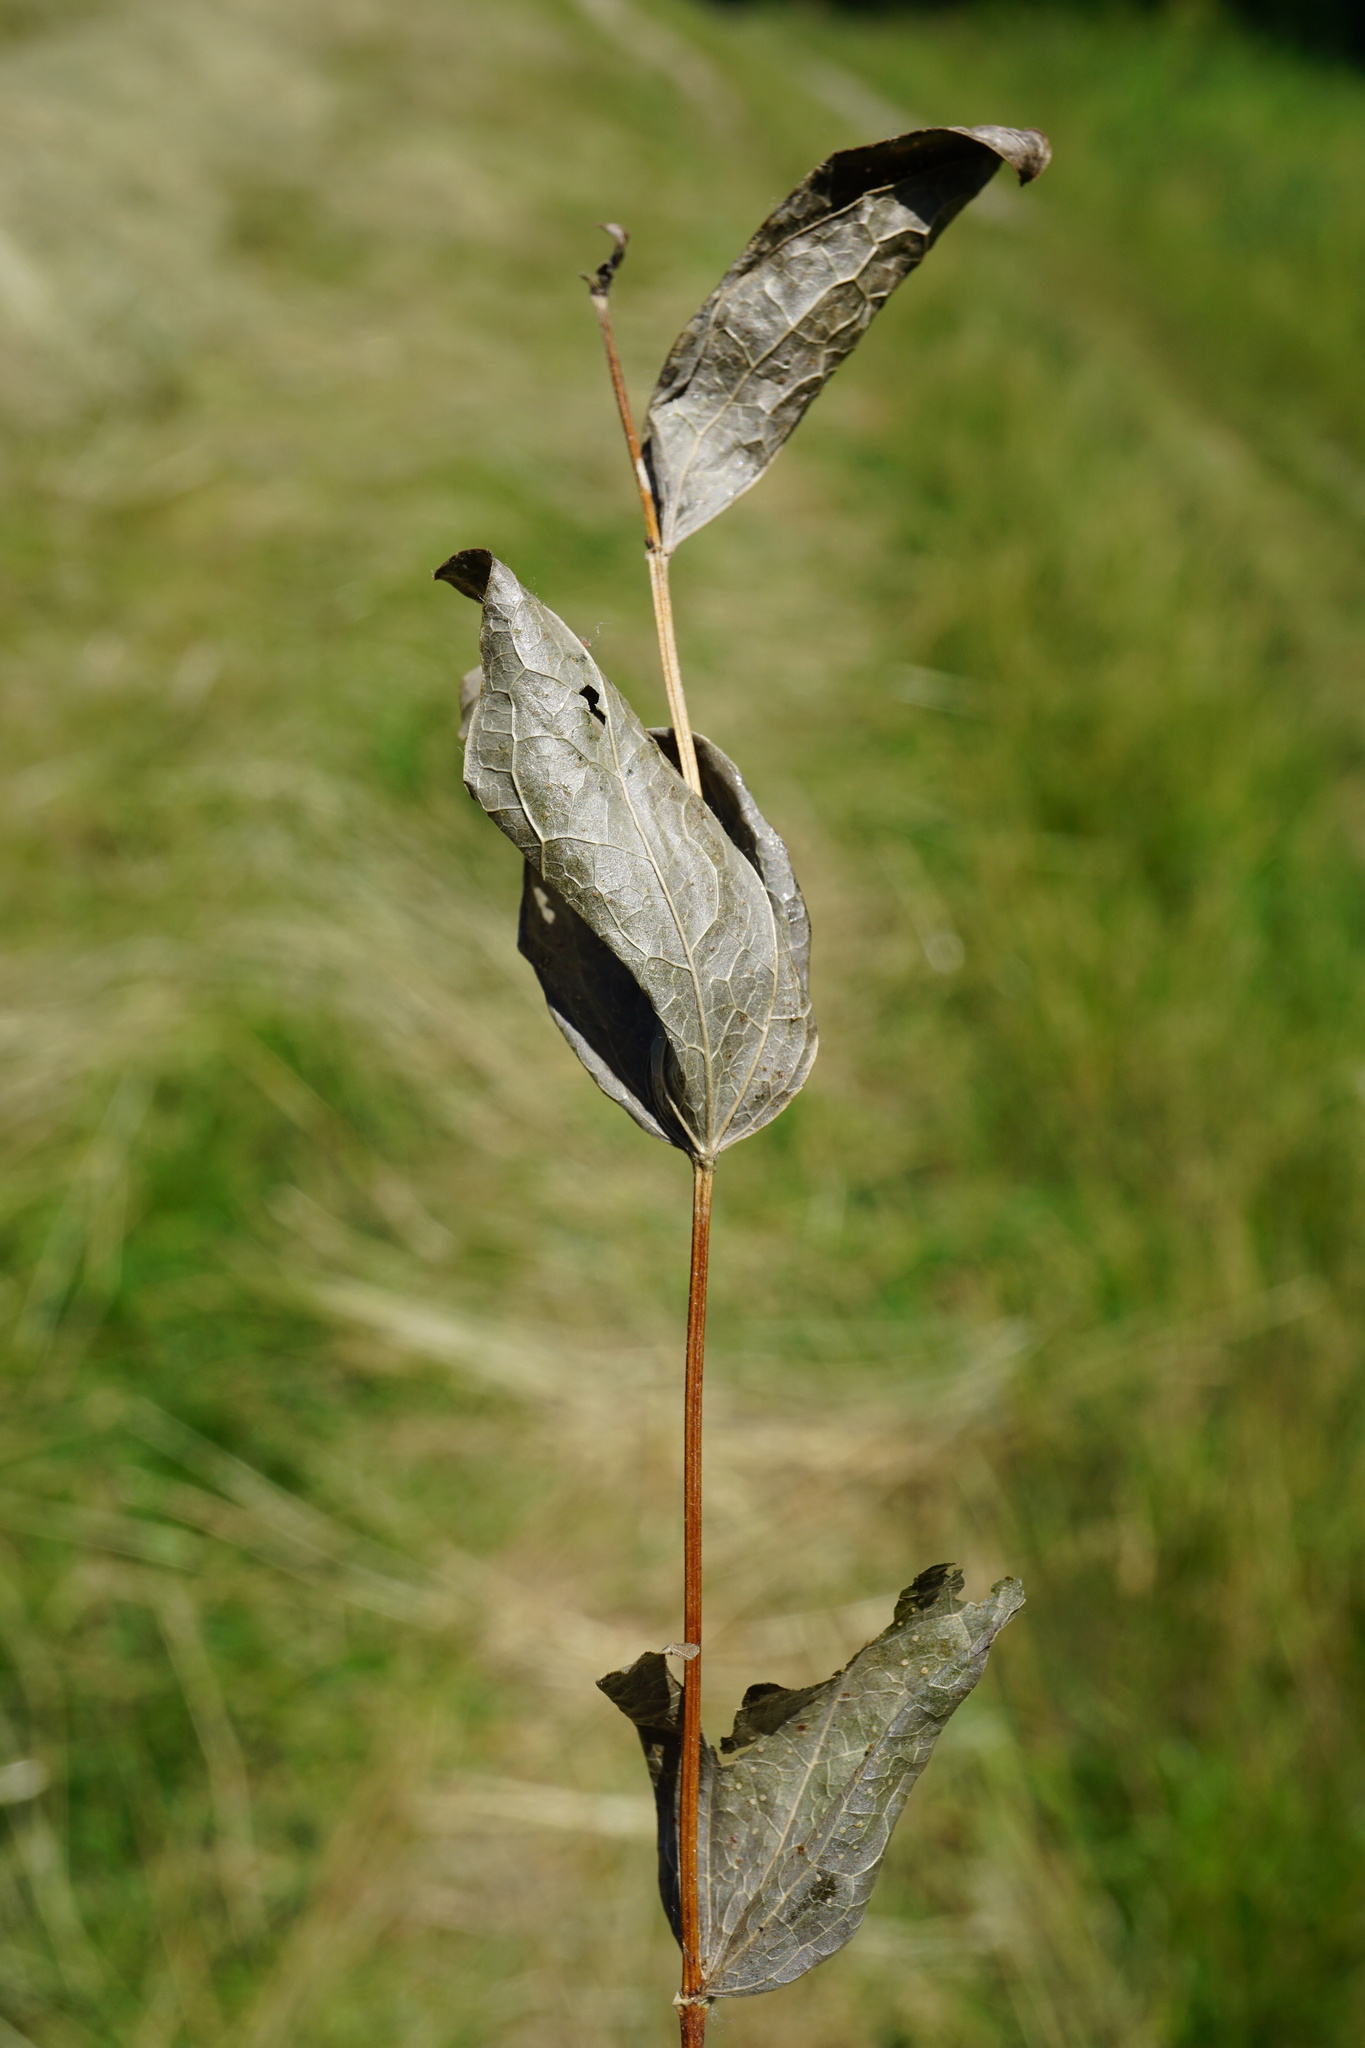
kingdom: Plantae
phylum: Tracheophyta
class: Magnoliopsida
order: Ranunculales
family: Ranunculaceae
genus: Clematis
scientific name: Clematis integrifolia
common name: Solitary clematis
